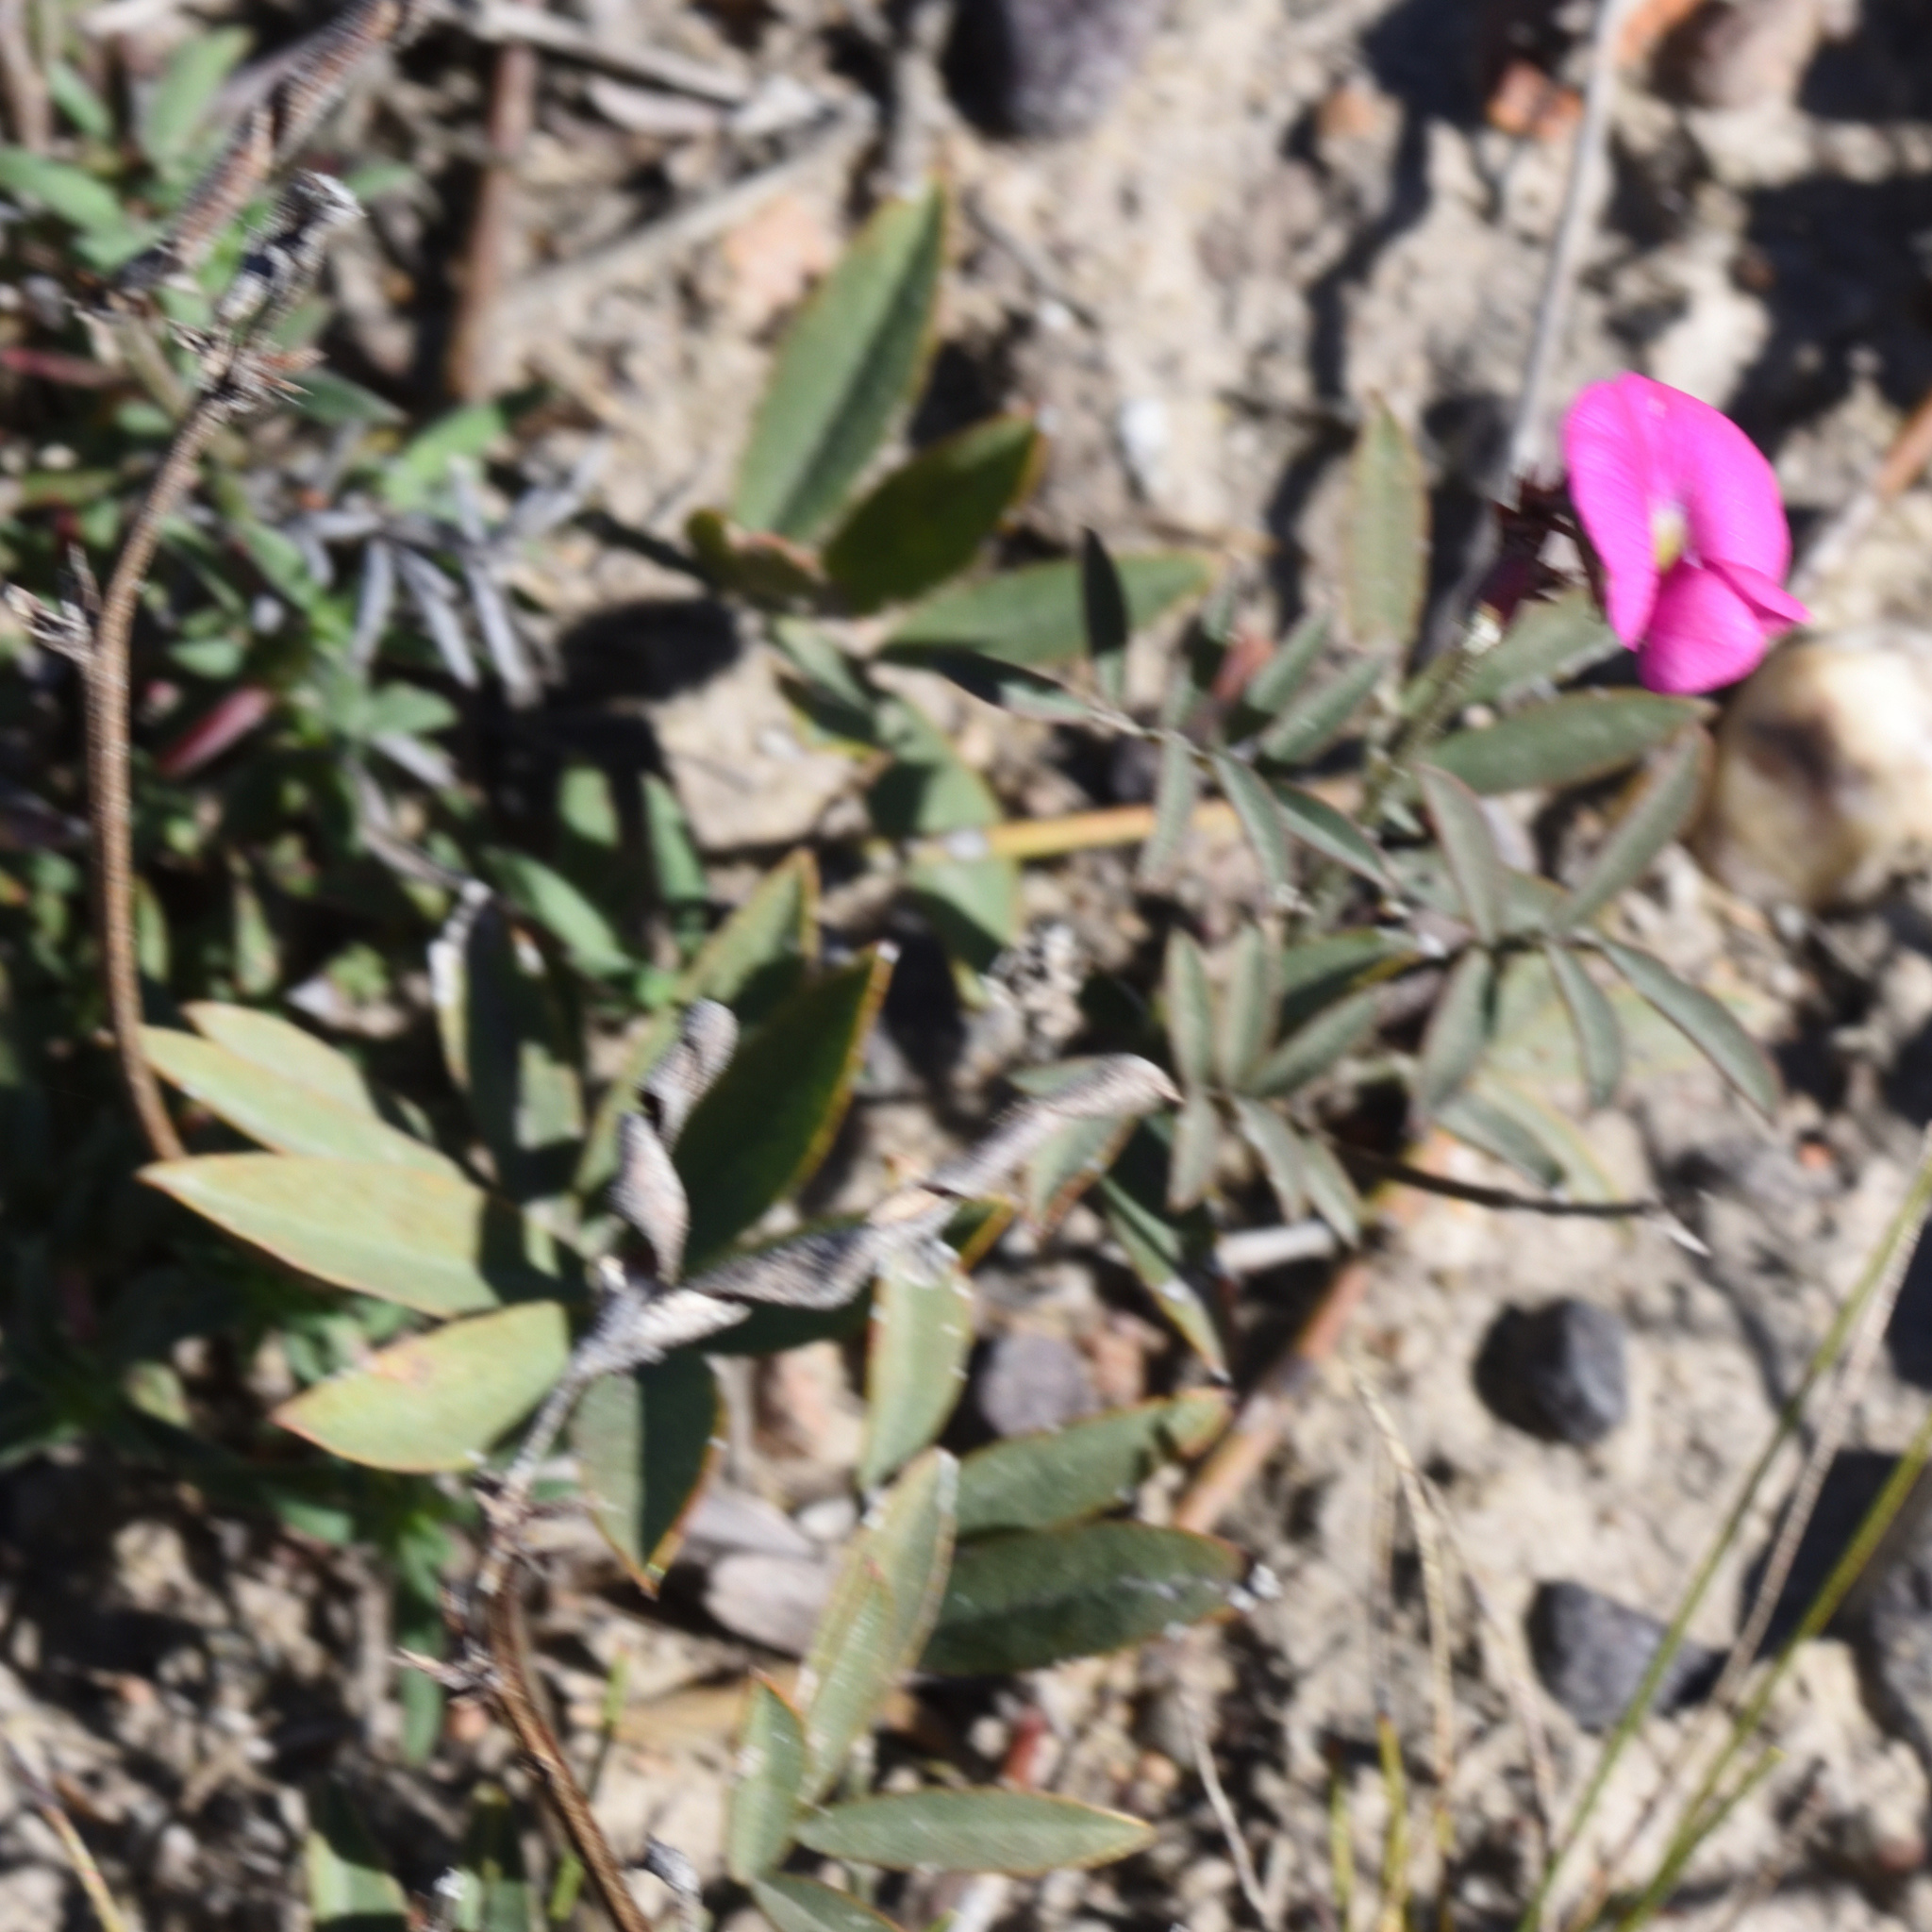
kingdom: Plantae
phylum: Tracheophyta
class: Magnoliopsida
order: Fabales
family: Fabaceae
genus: Tephrosia
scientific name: Tephrosia capensis
